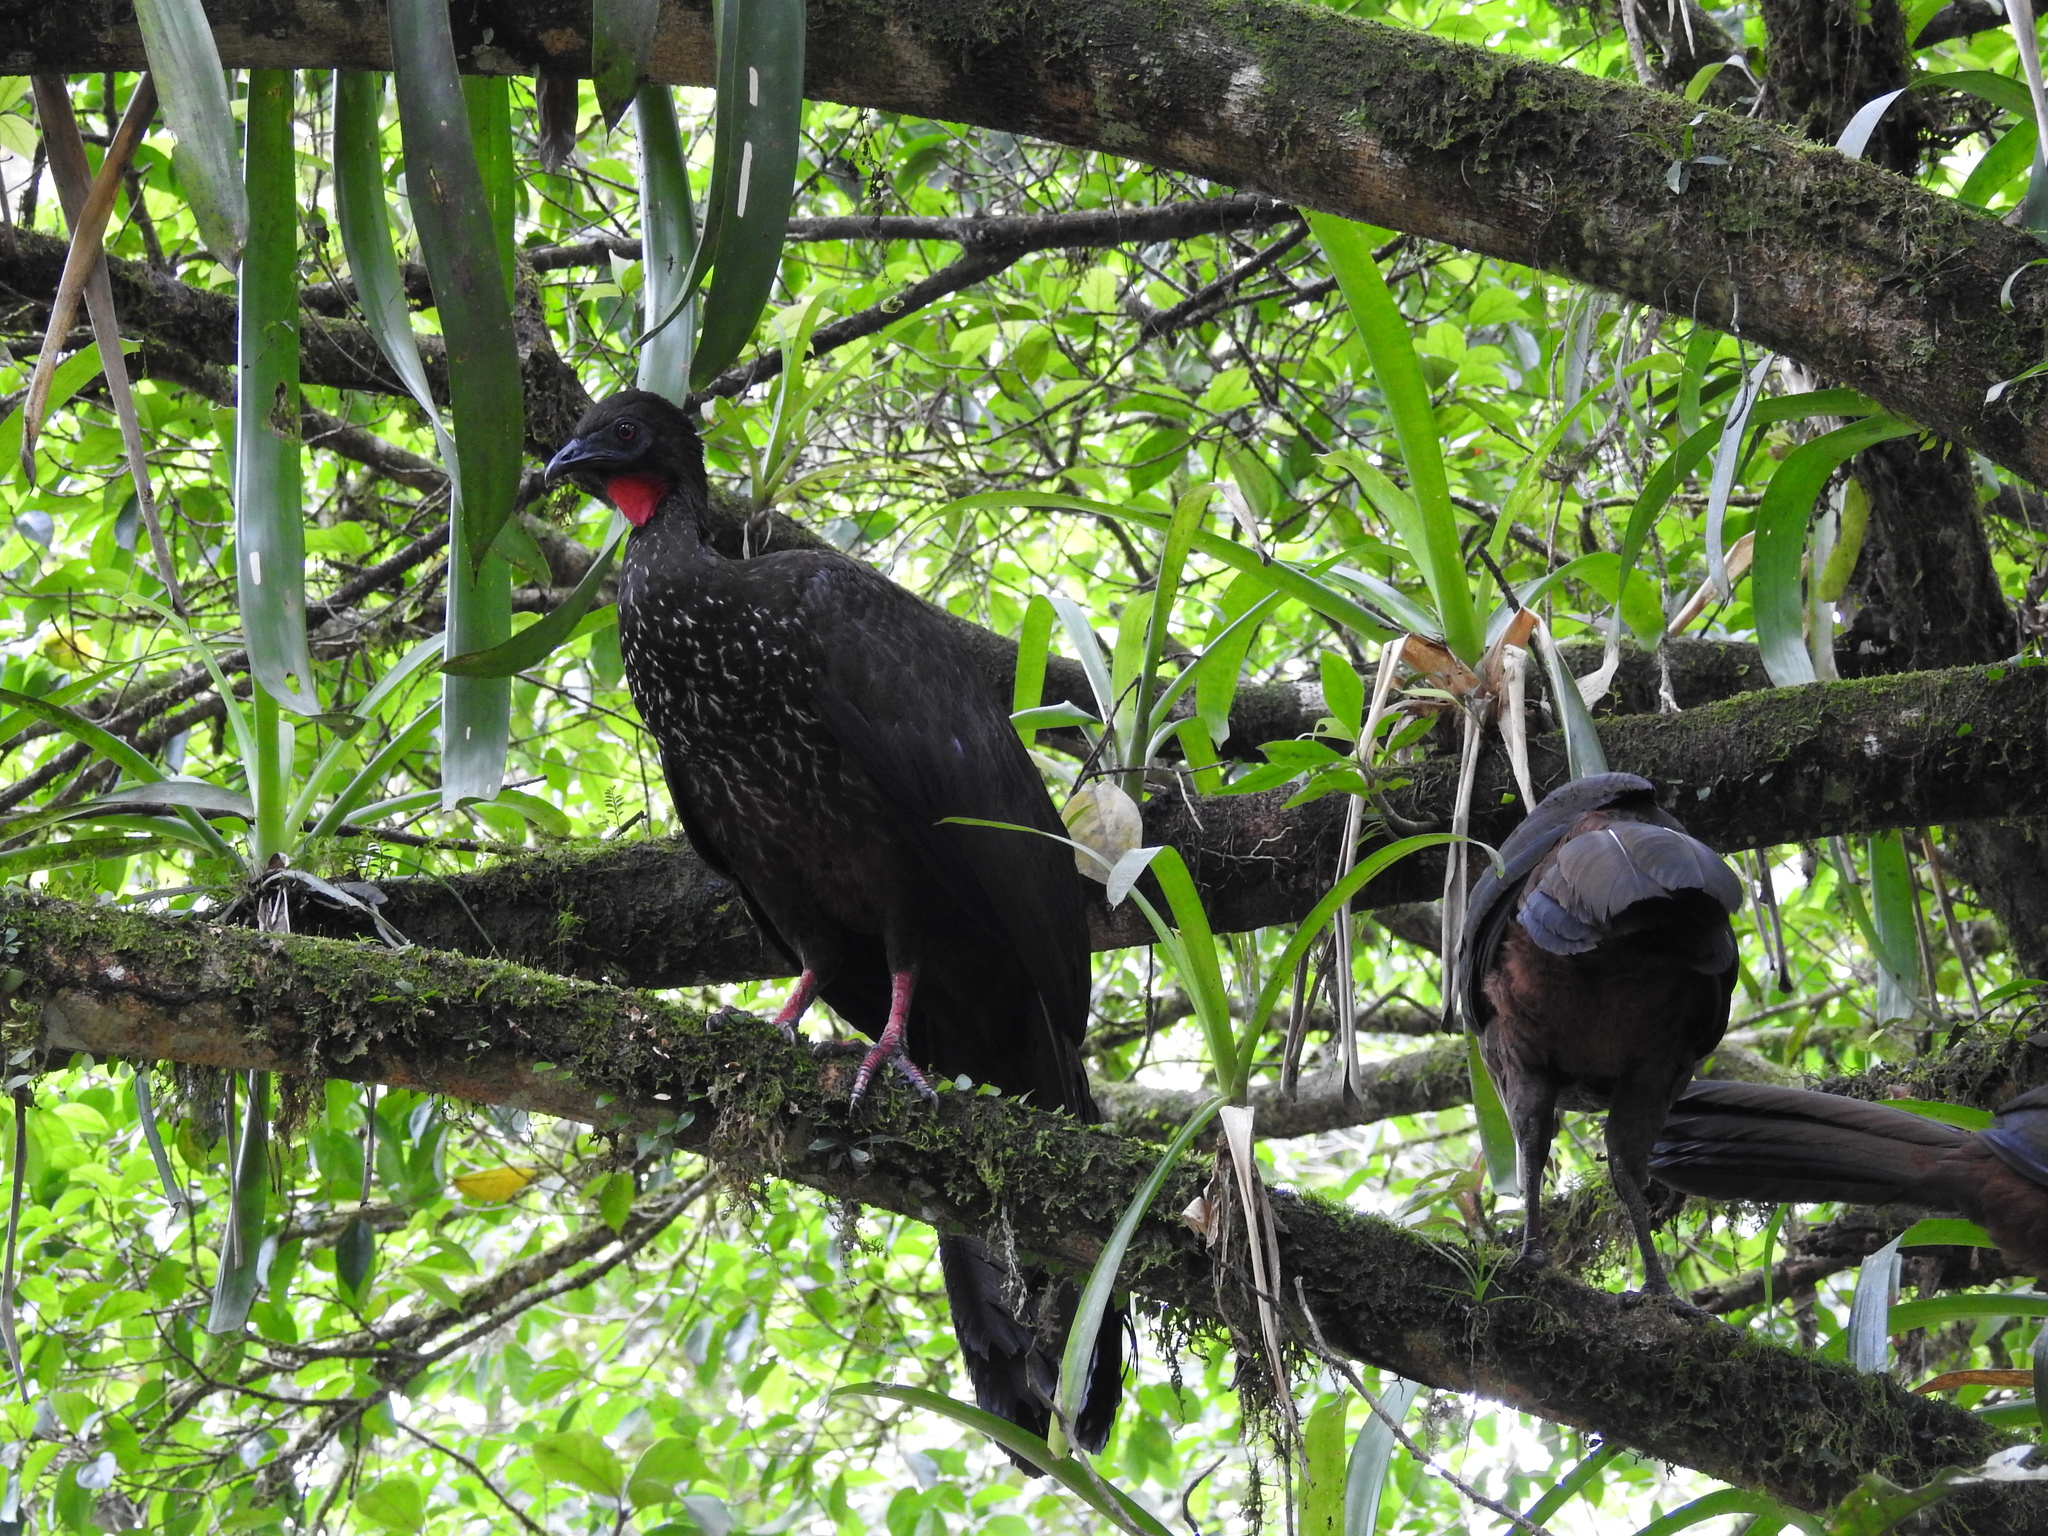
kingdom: Animalia
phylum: Chordata
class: Aves
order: Galliformes
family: Cracidae
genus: Penelope
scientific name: Penelope purpurascens
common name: Crested guan
